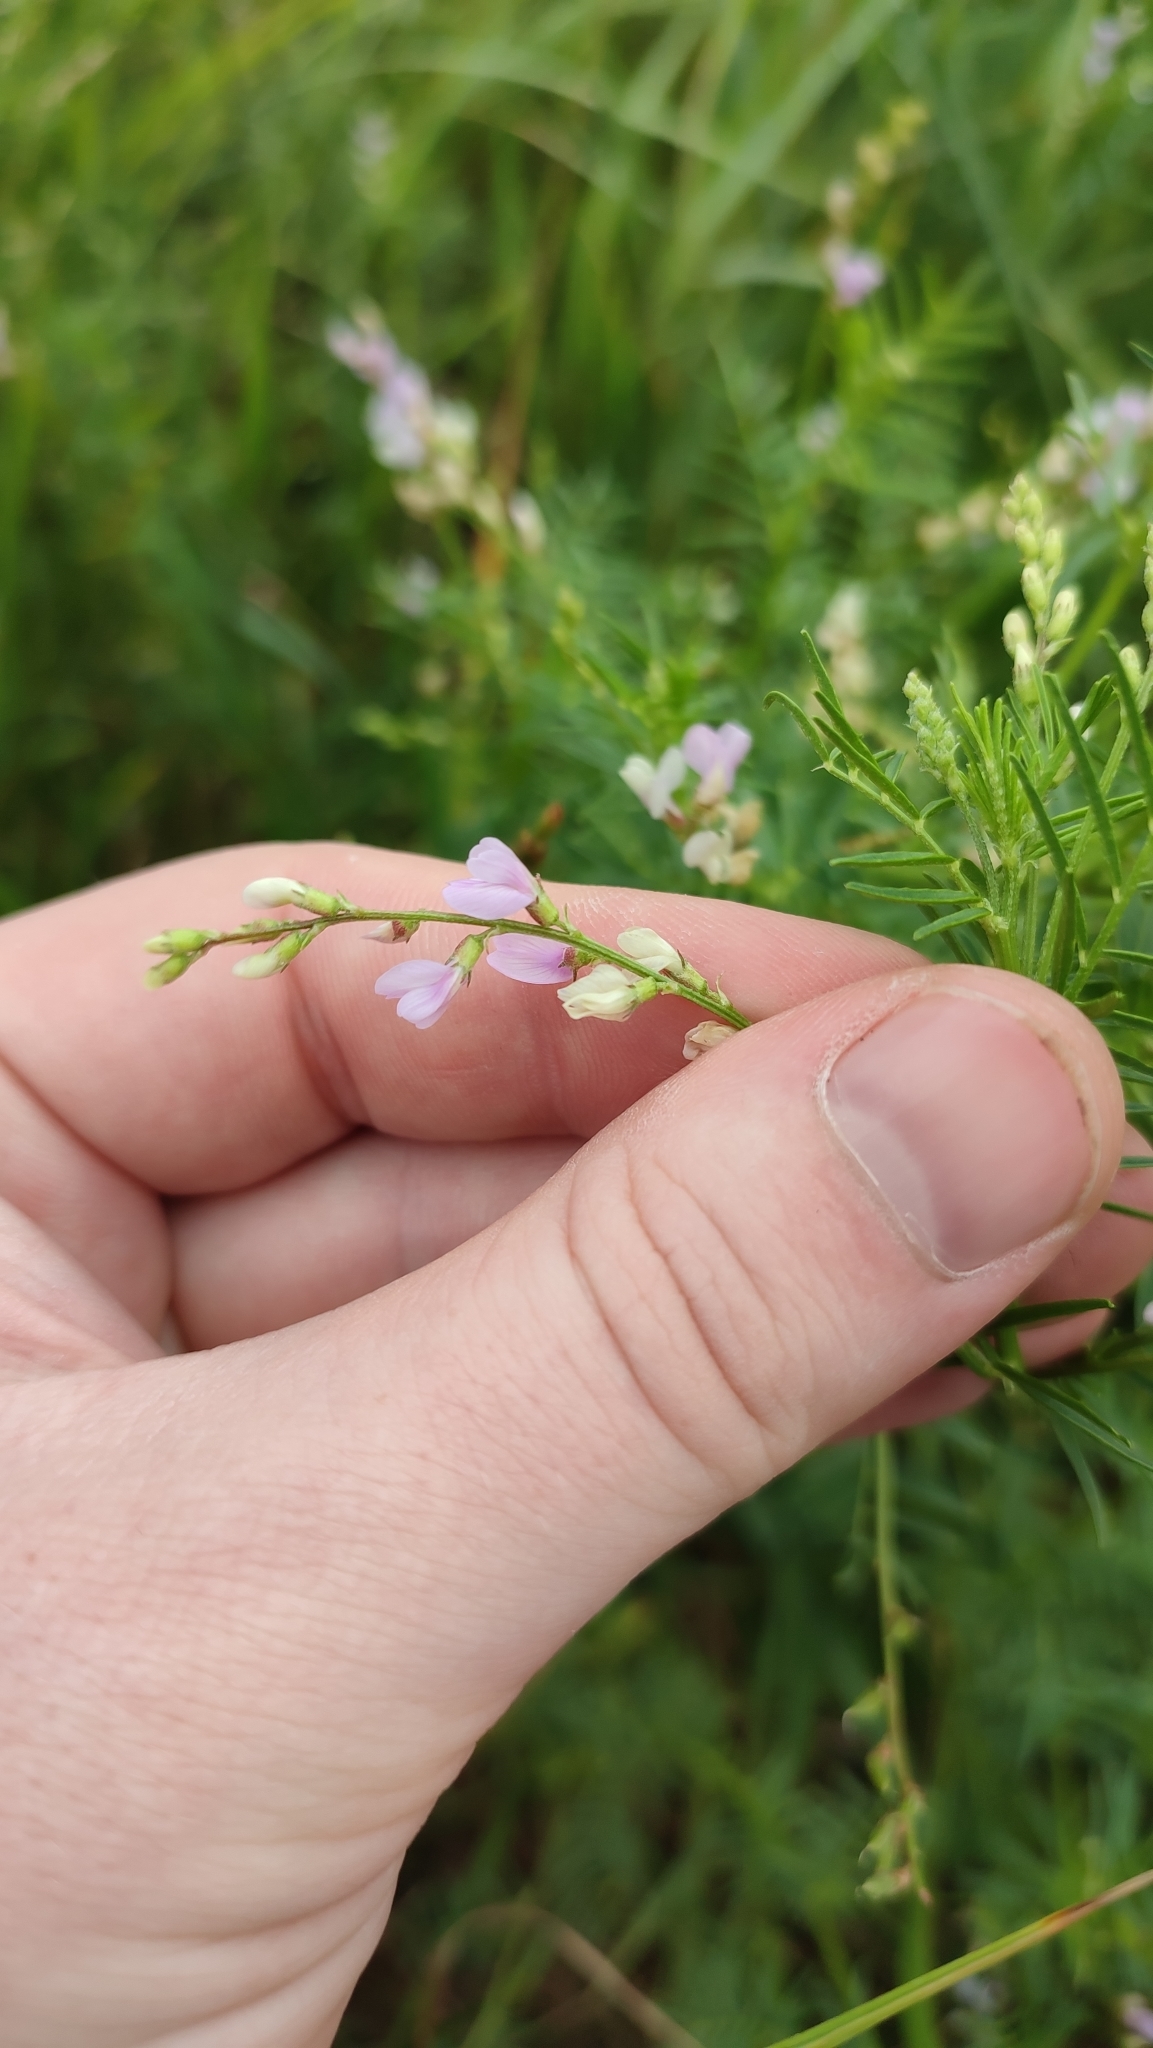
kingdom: Plantae
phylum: Tracheophyta
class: Magnoliopsida
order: Fabales
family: Fabaceae
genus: Astragalus
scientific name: Astragalus sulcatus
